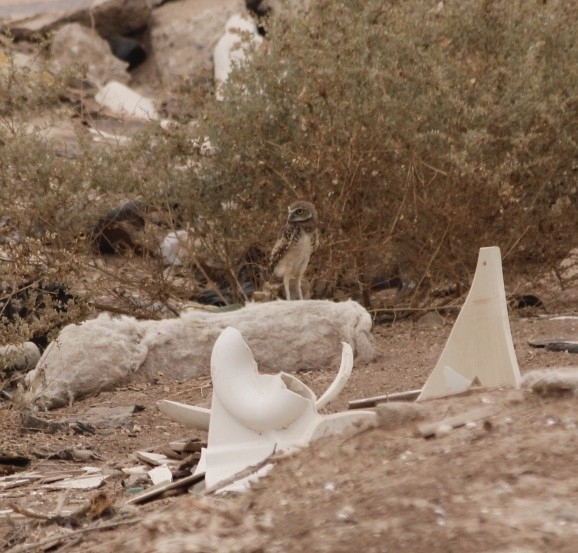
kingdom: Animalia
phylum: Chordata
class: Aves
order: Strigiformes
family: Strigidae
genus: Athene
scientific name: Athene cunicularia
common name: Burrowing owl
